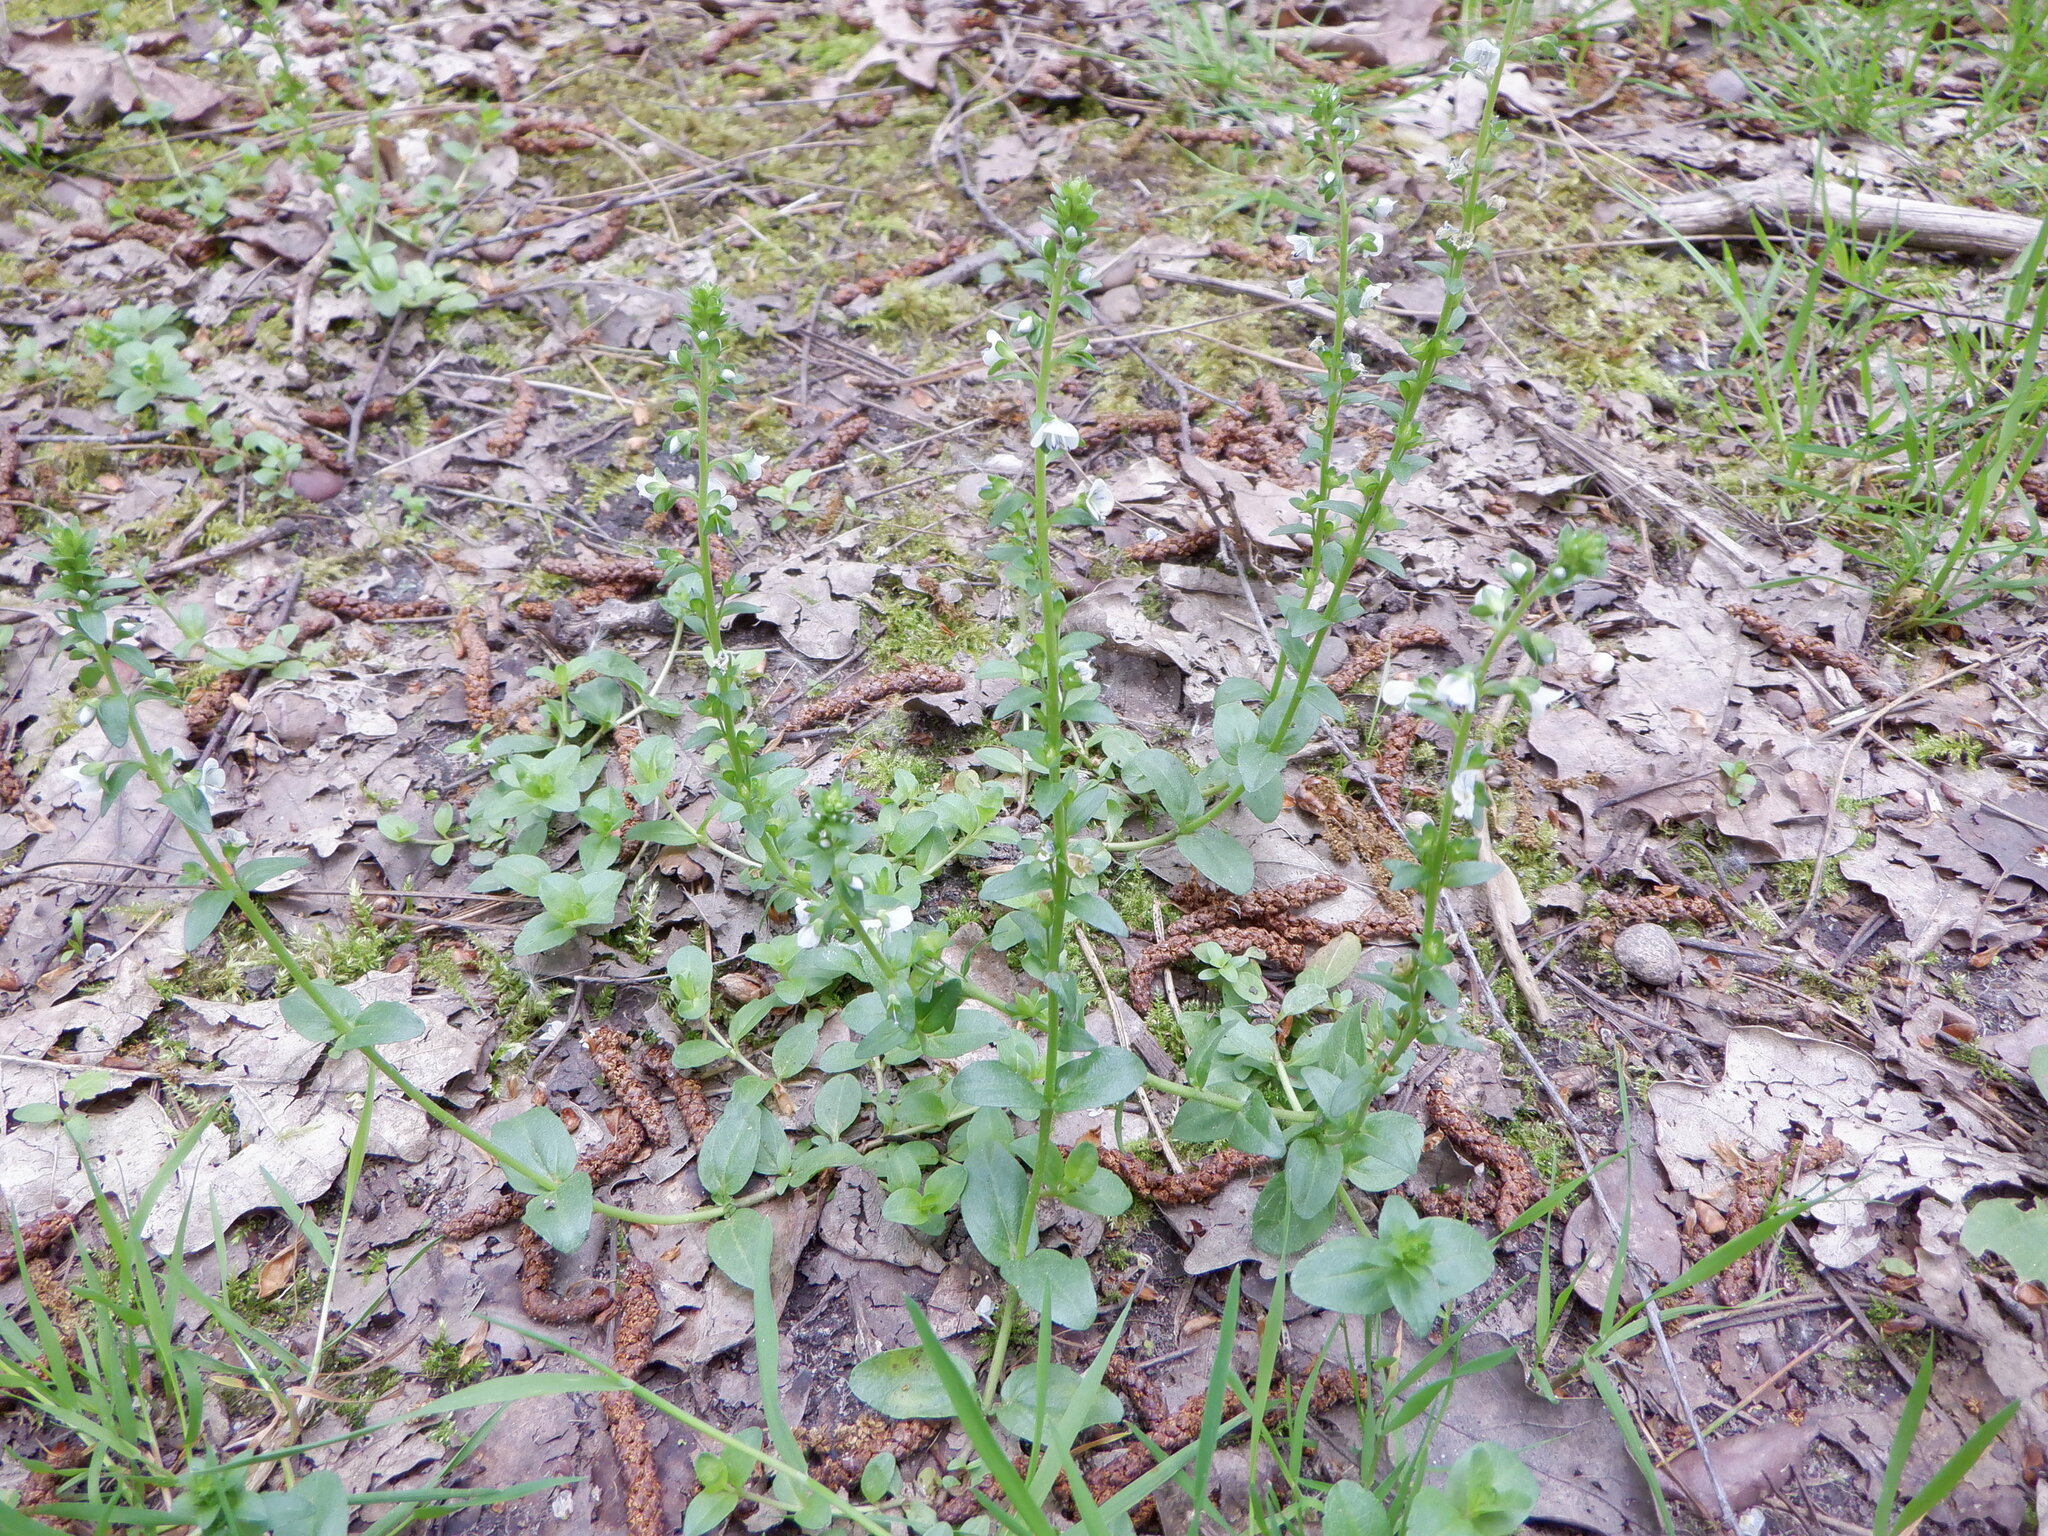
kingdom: Plantae
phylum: Tracheophyta
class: Magnoliopsida
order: Lamiales
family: Plantaginaceae
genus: Veronica
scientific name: Veronica serpyllifolia
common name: Thyme-leaved speedwell
